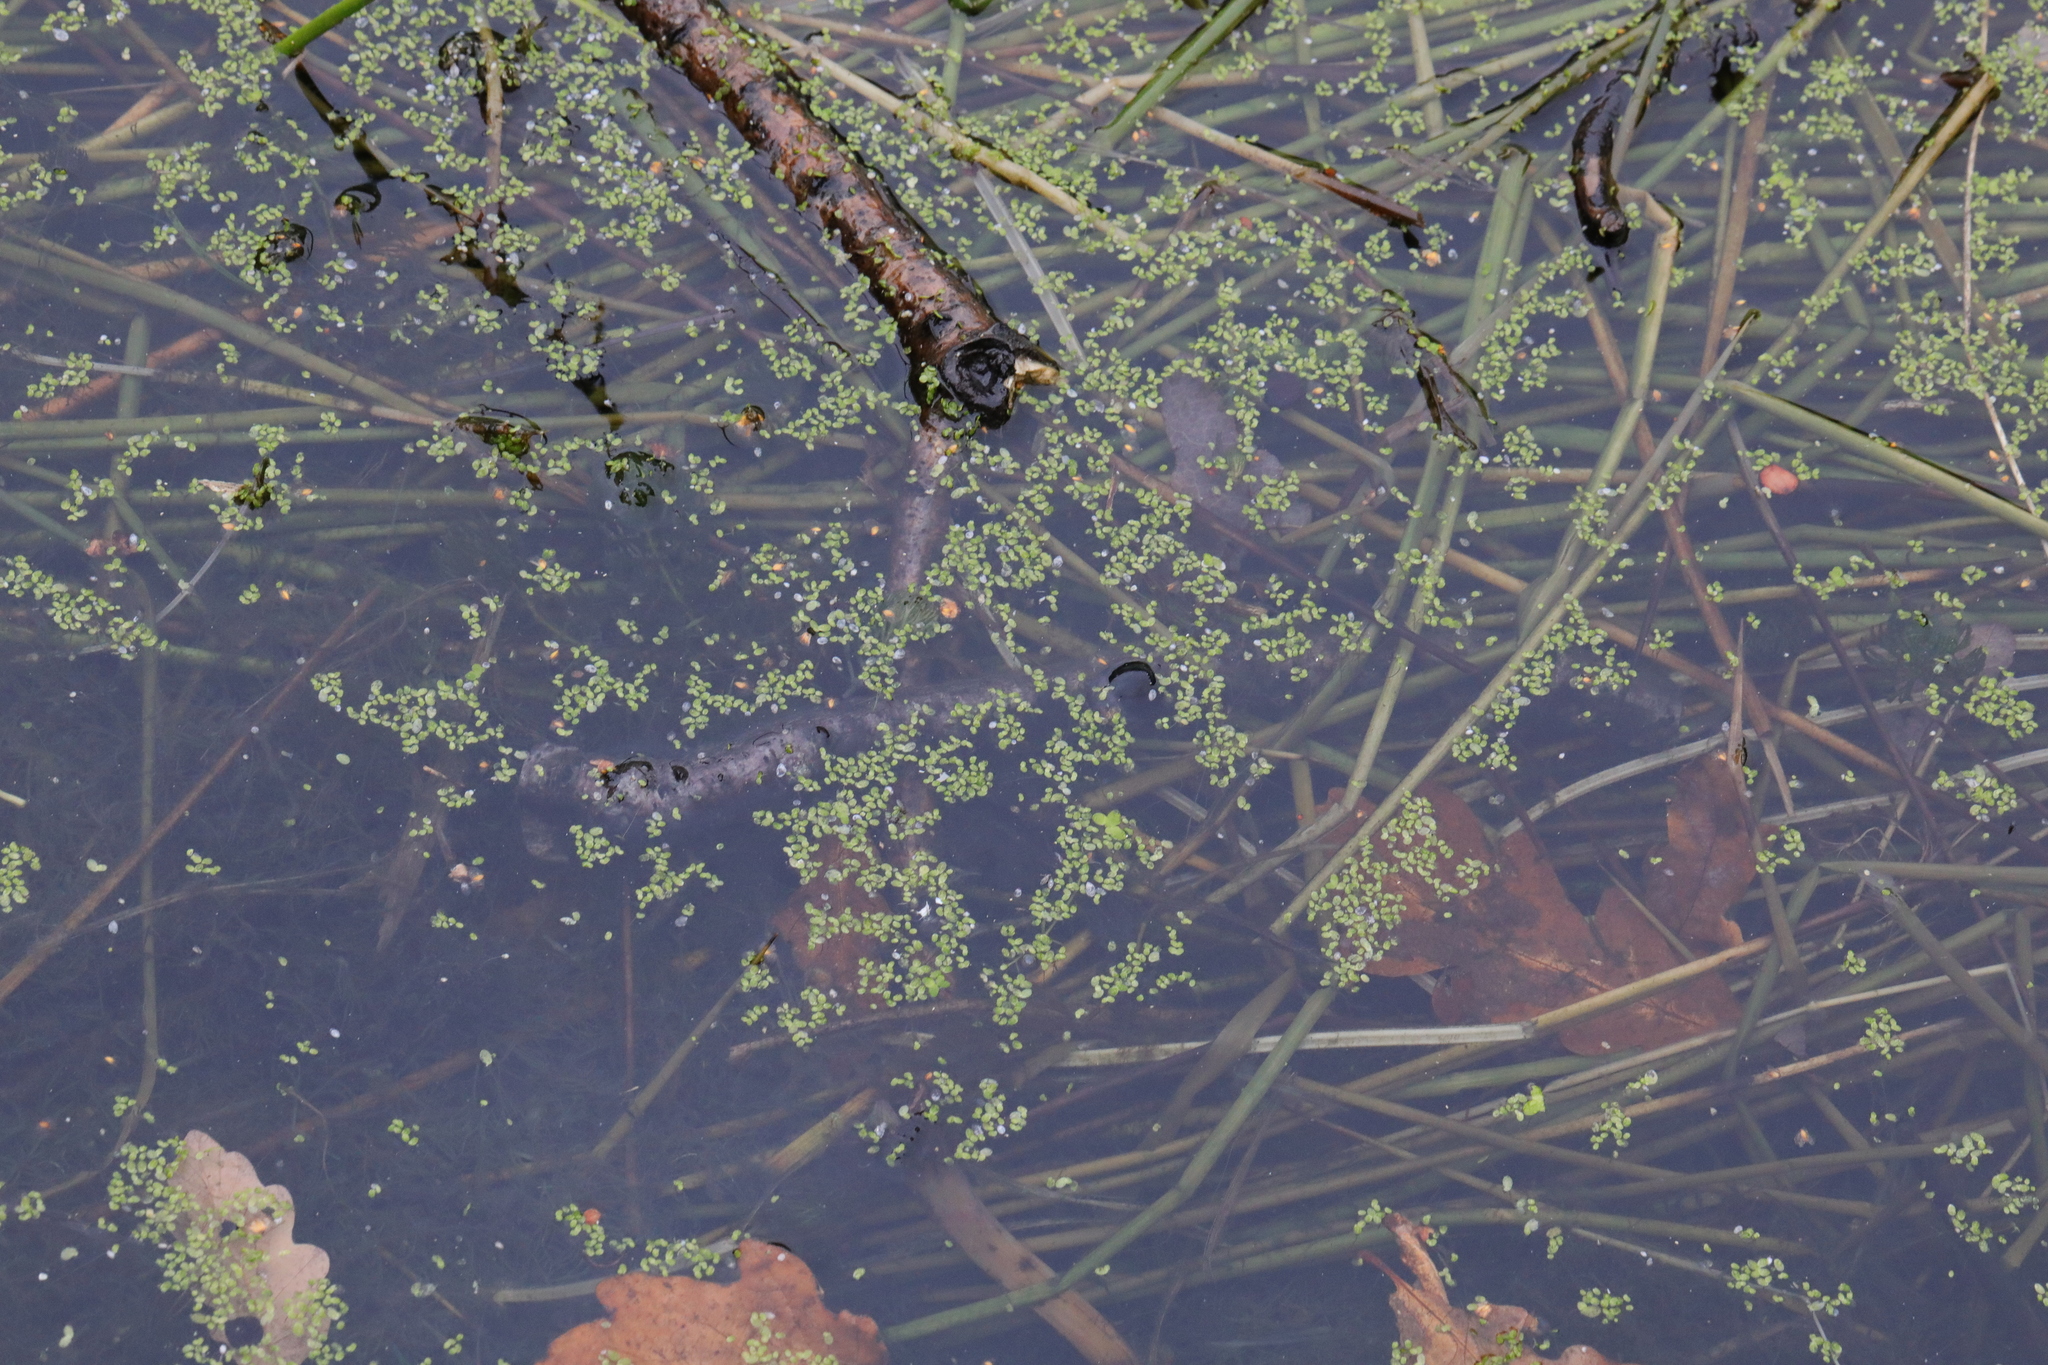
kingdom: Plantae
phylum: Tracheophyta
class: Liliopsida
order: Alismatales
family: Araceae
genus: Lemna
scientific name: Lemna minor
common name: Common duckweed
